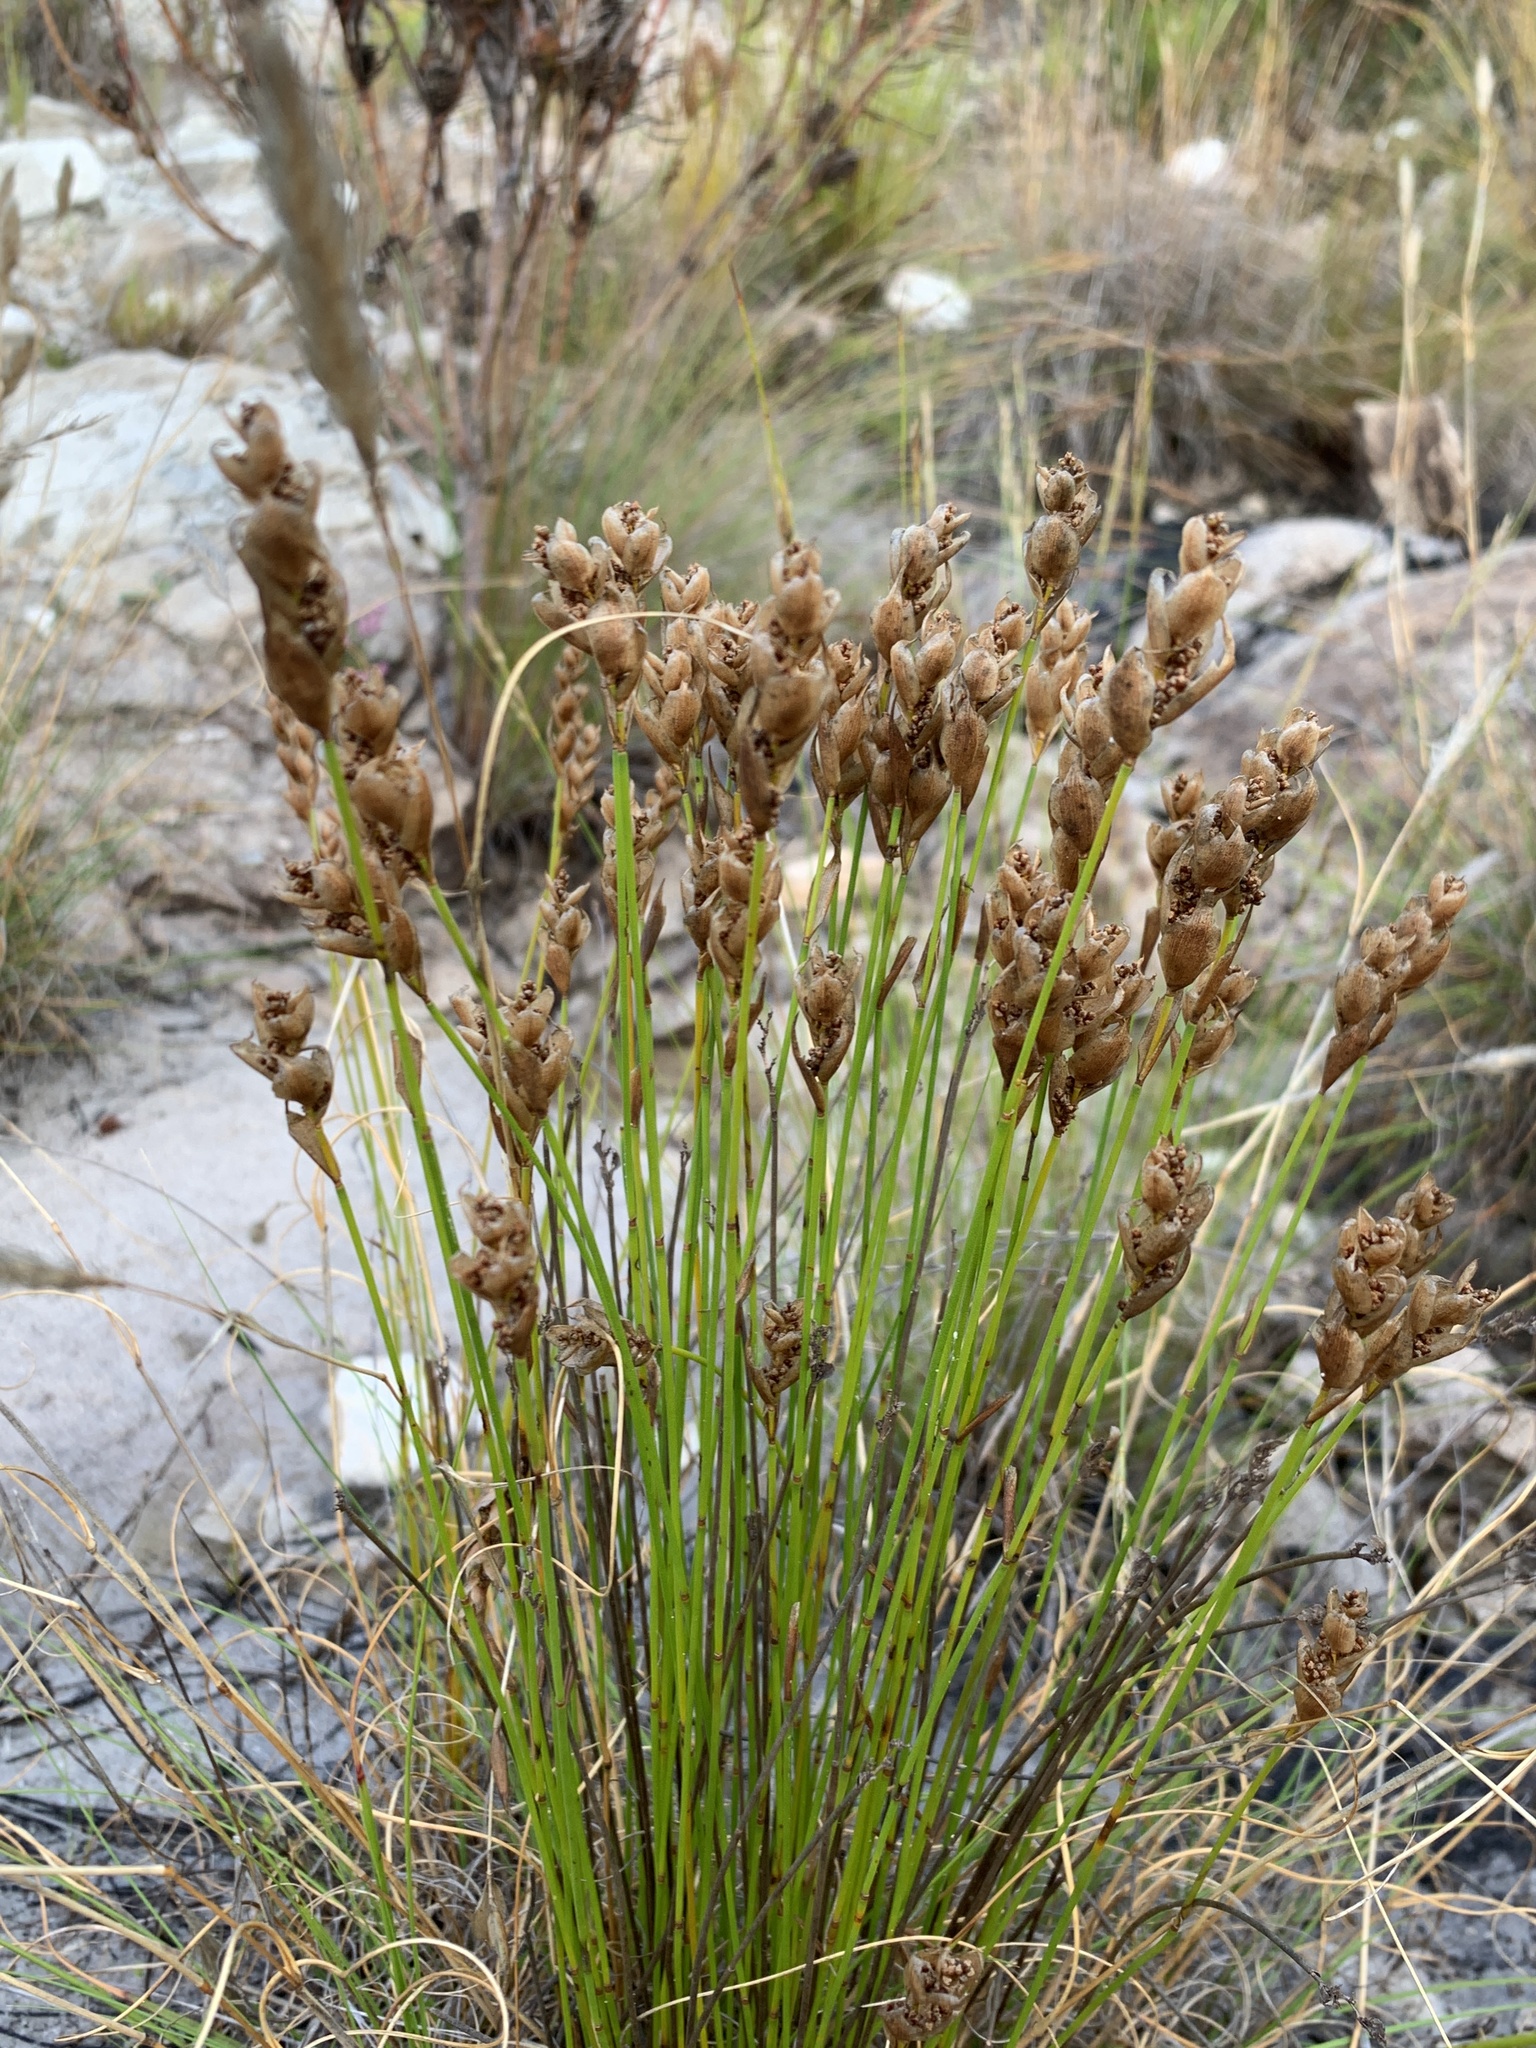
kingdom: Plantae
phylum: Tracheophyta
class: Liliopsida
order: Poales
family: Restionaceae
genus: Elegia
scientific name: Elegia filacea
